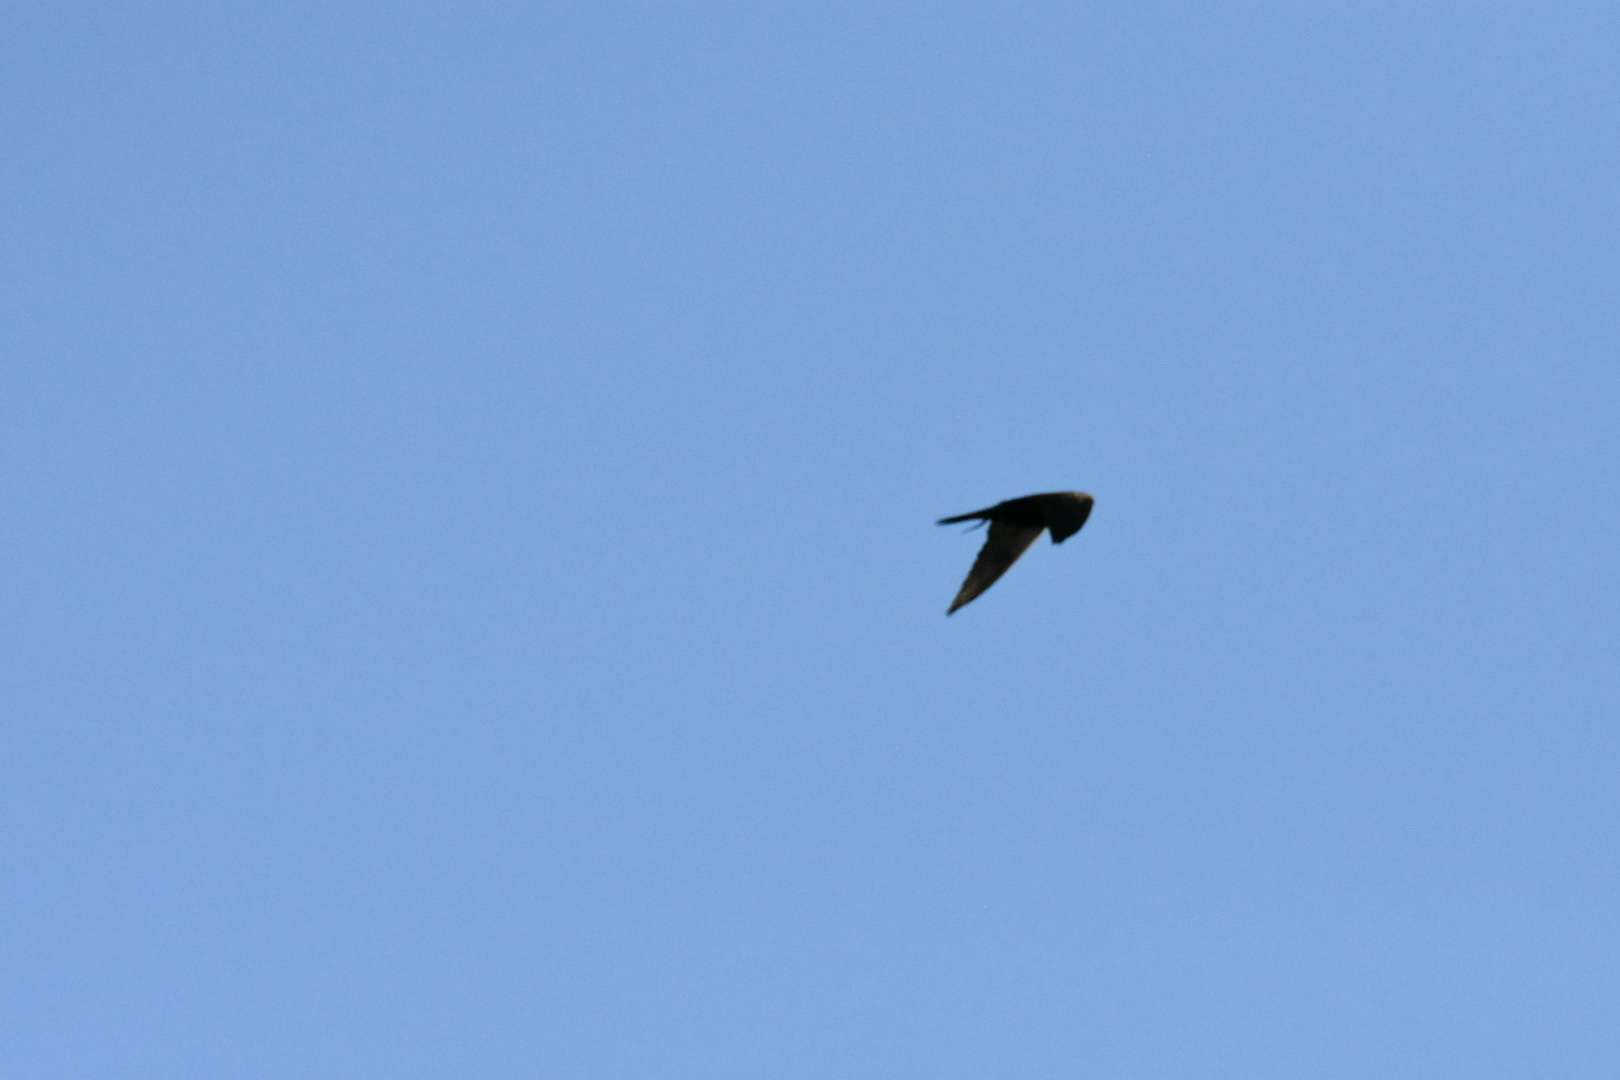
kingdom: Animalia
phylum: Chordata
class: Aves
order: Falconiformes
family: Falconidae
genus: Falco
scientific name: Falco tinnunculus
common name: Common kestrel
